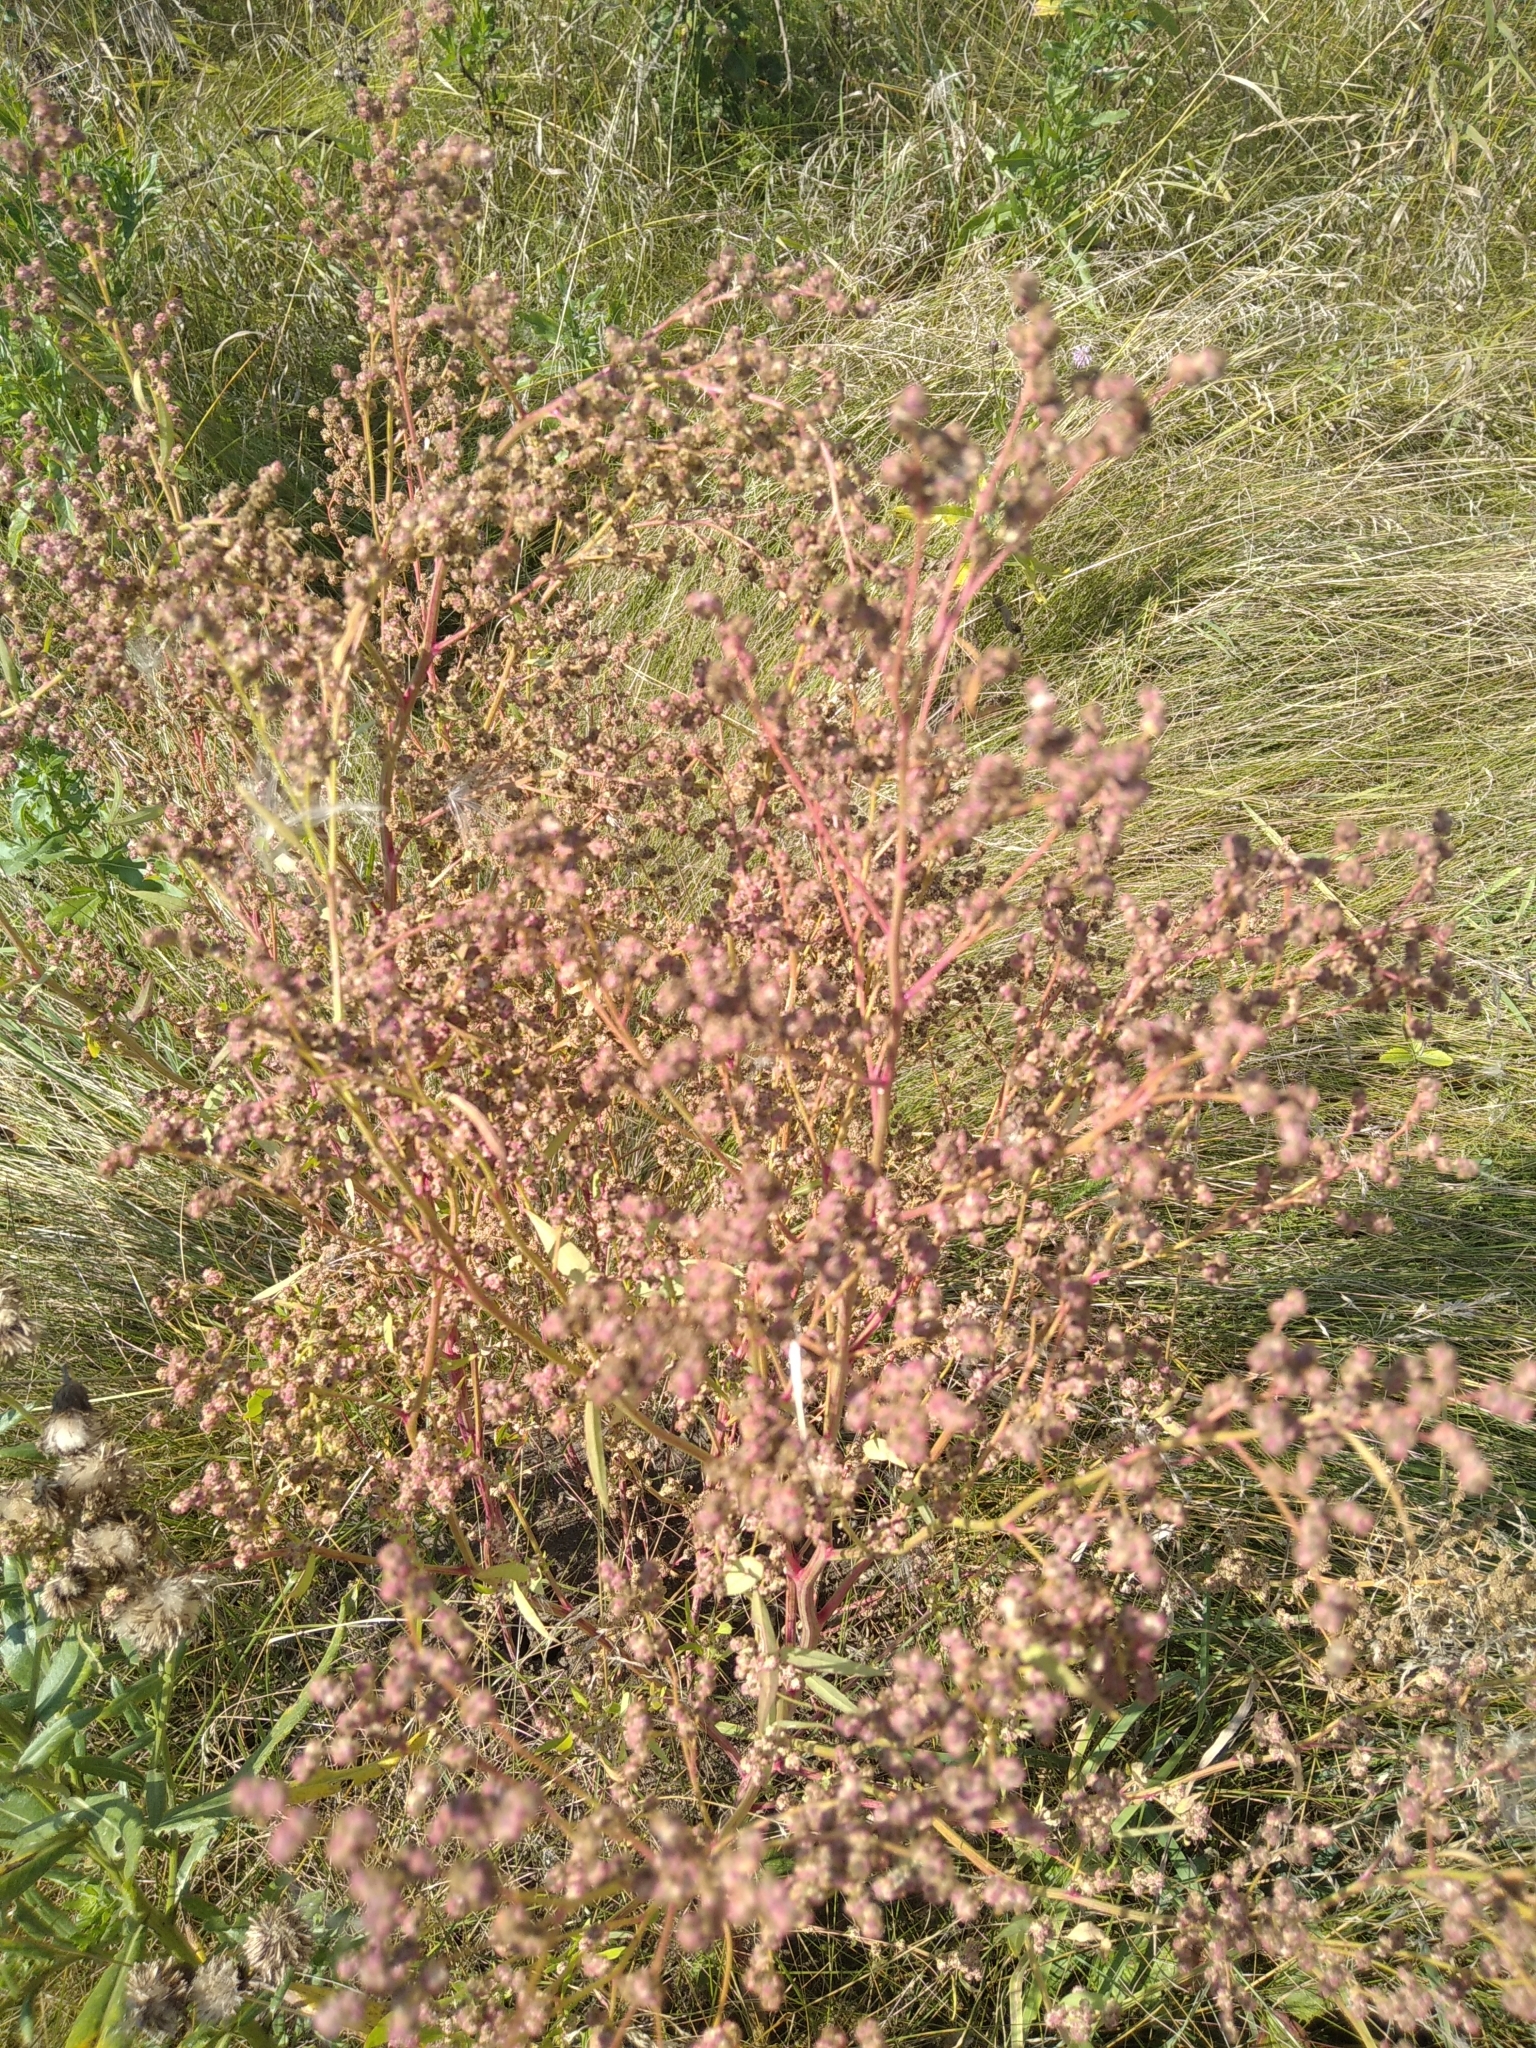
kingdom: Plantae
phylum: Tracheophyta
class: Magnoliopsida
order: Caryophyllales
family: Amaranthaceae
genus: Chenopodium
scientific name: Chenopodium album
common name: Fat-hen
